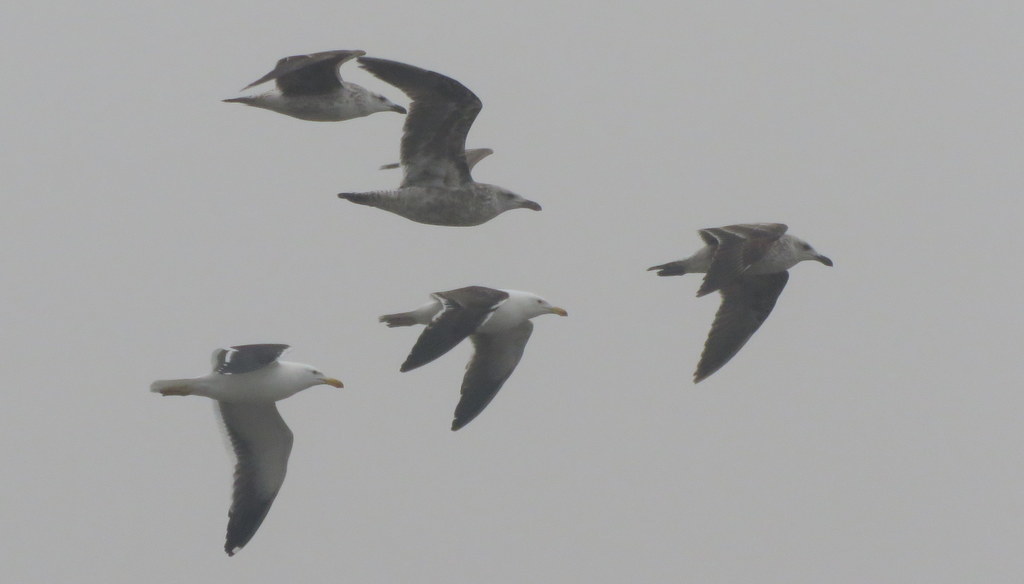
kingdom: Animalia
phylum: Chordata
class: Aves
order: Charadriiformes
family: Laridae
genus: Larus
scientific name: Larus dominicanus
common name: Kelp gull
